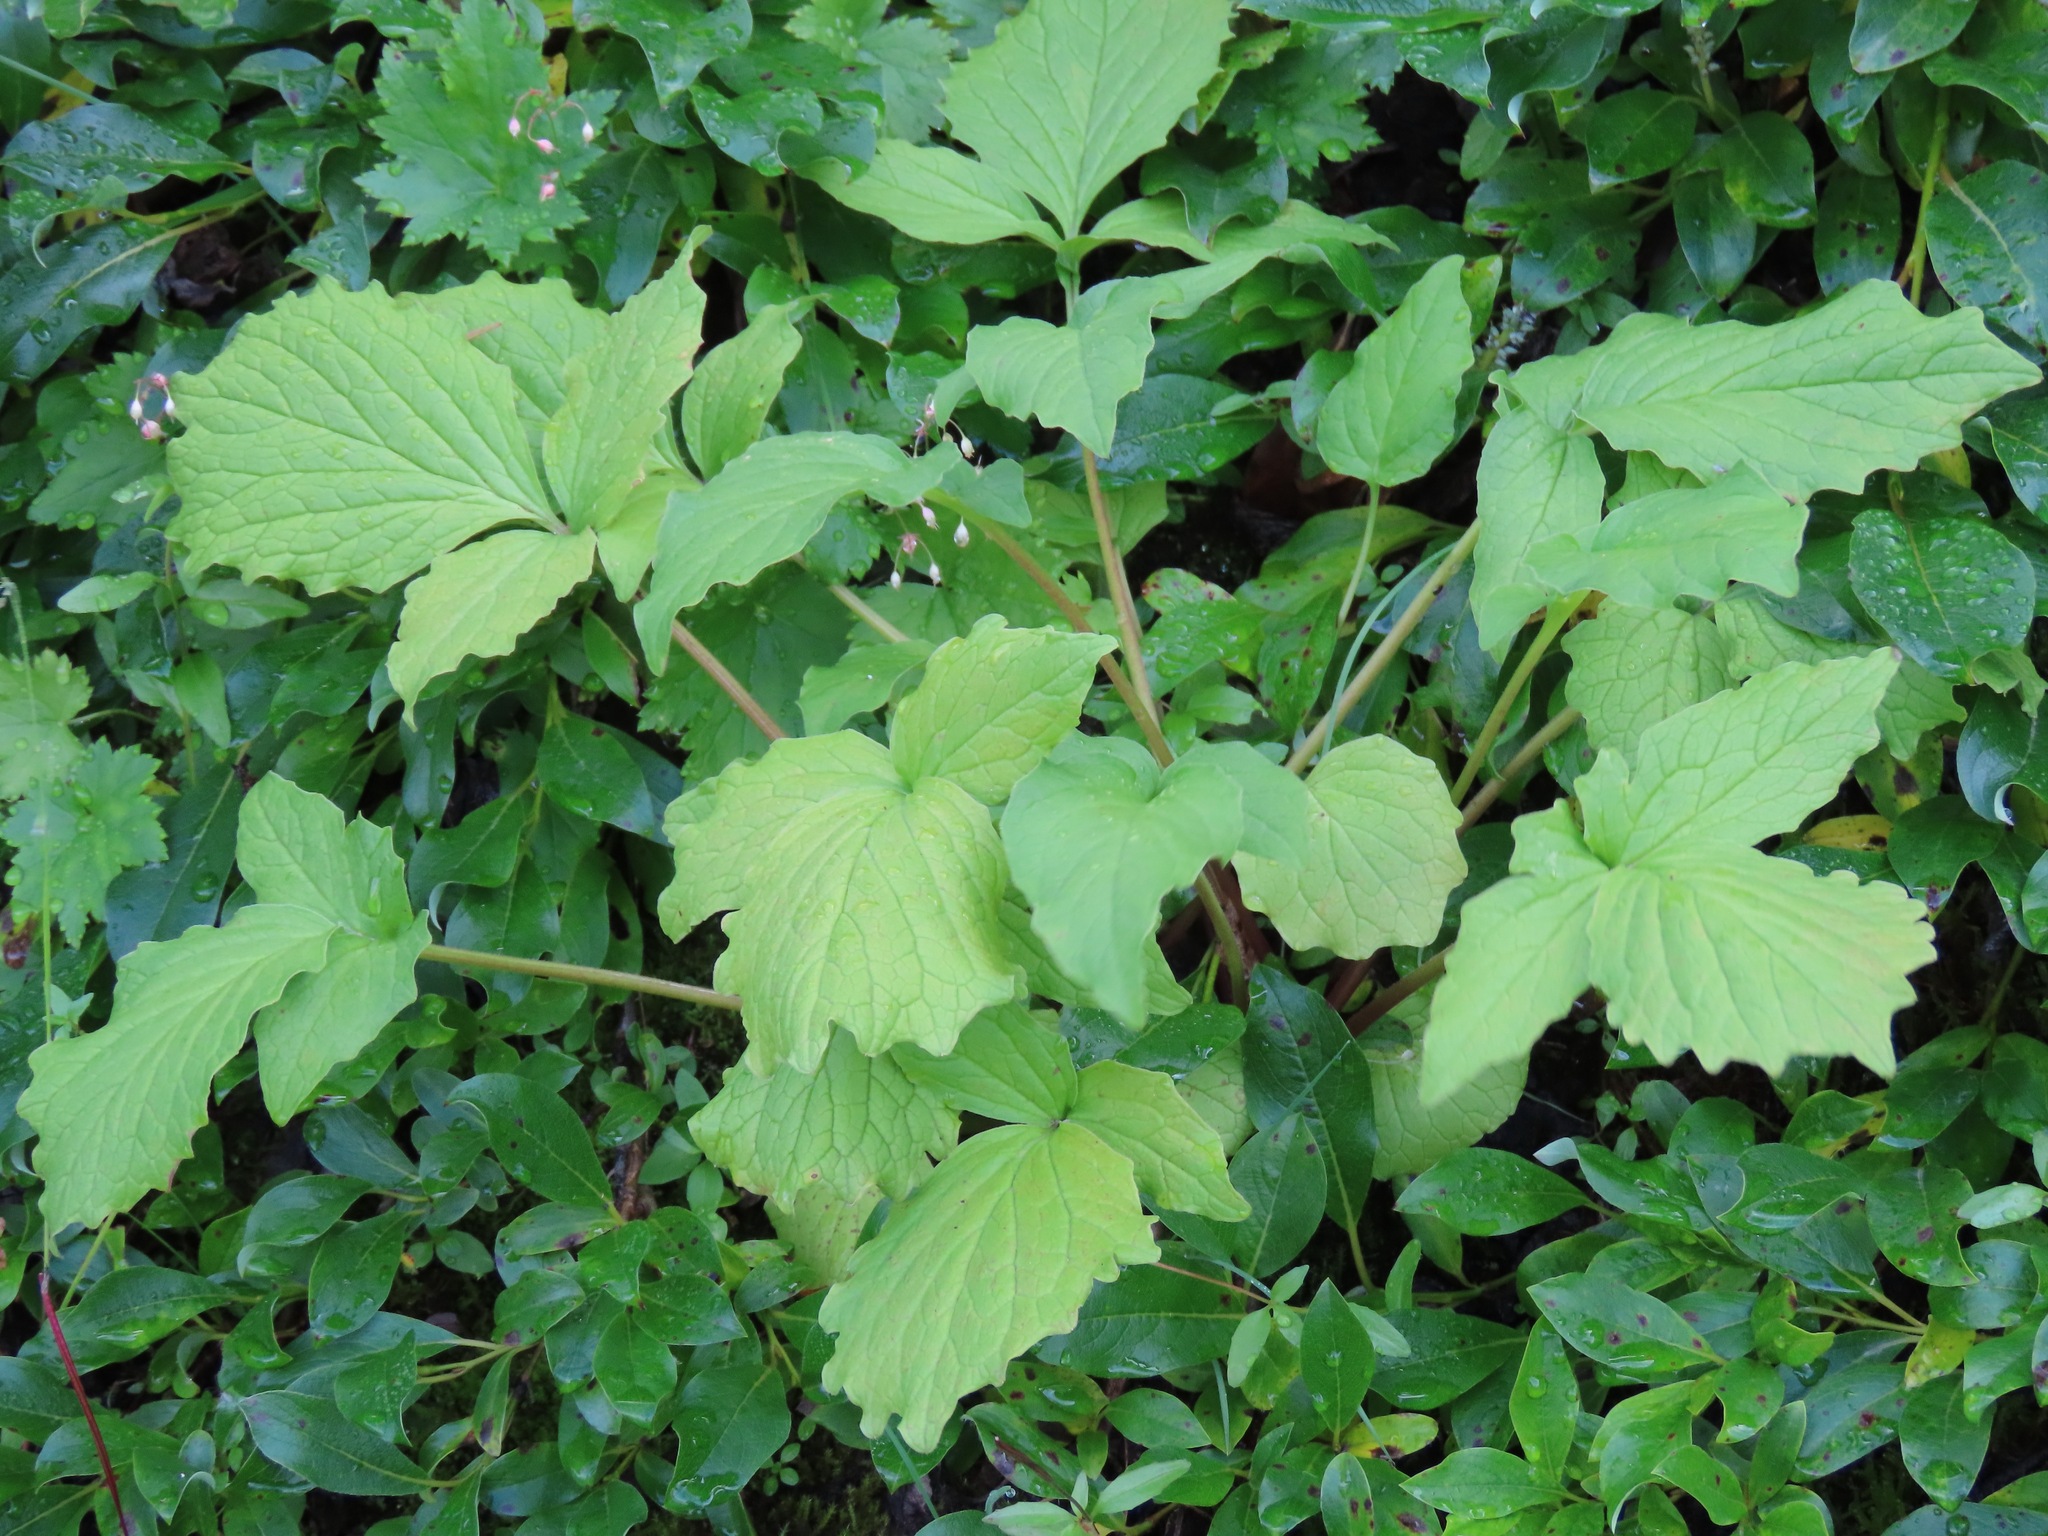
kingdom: Plantae
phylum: Tracheophyta
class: Magnoliopsida
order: Dipsacales
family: Caprifoliaceae
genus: Valeriana
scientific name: Valeriana sitchensis
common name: Pacific valerian
